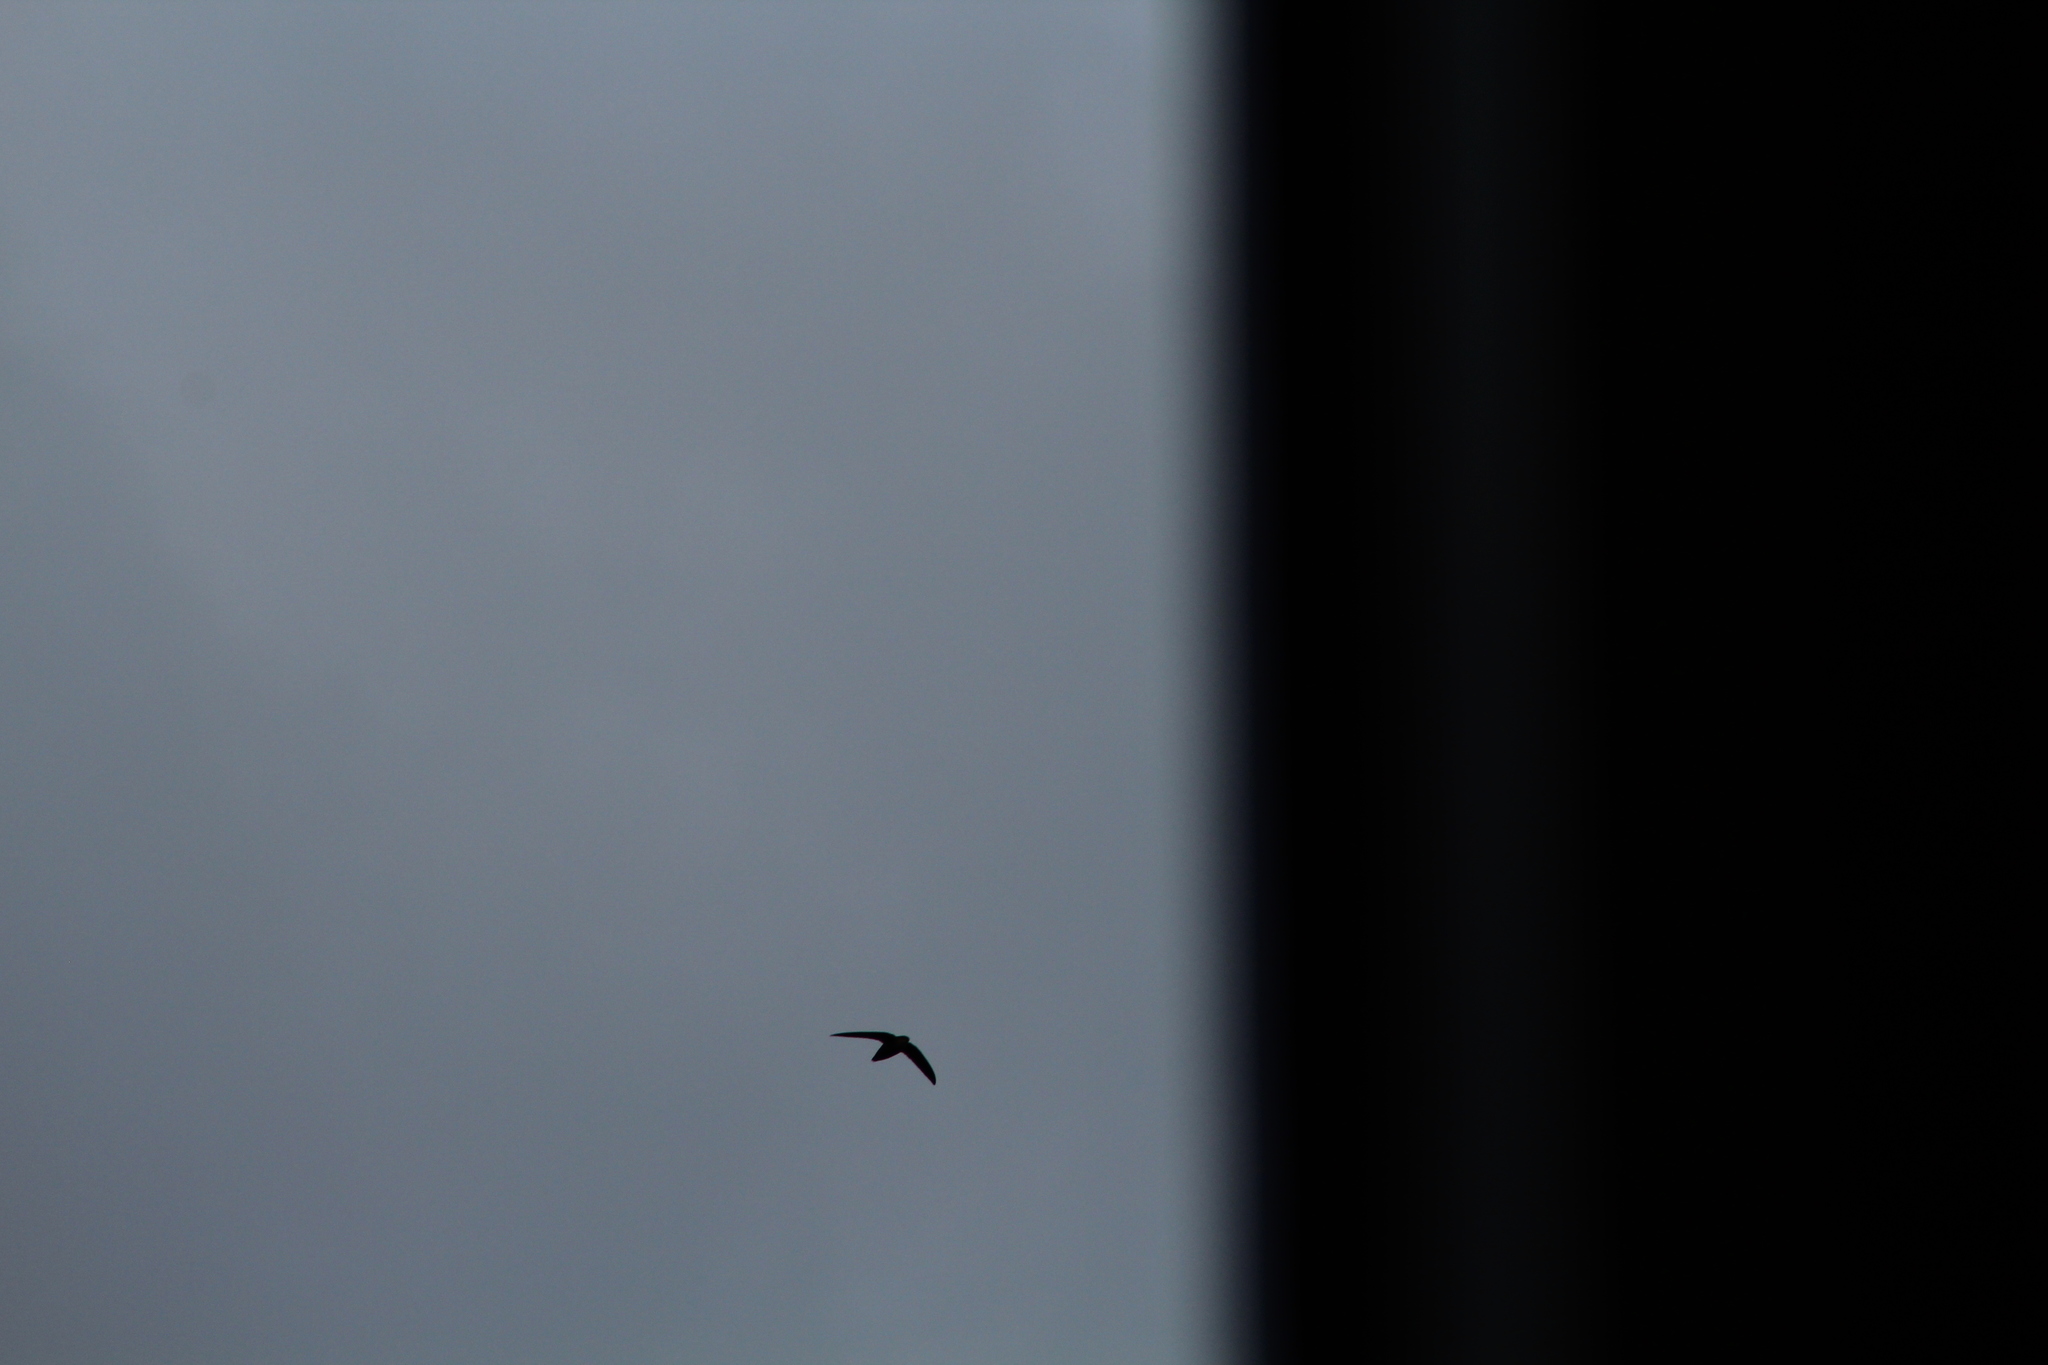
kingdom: Animalia
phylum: Chordata
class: Aves
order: Apodiformes
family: Apodidae
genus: Chaetura
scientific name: Chaetura pelagica
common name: Chimney swift
